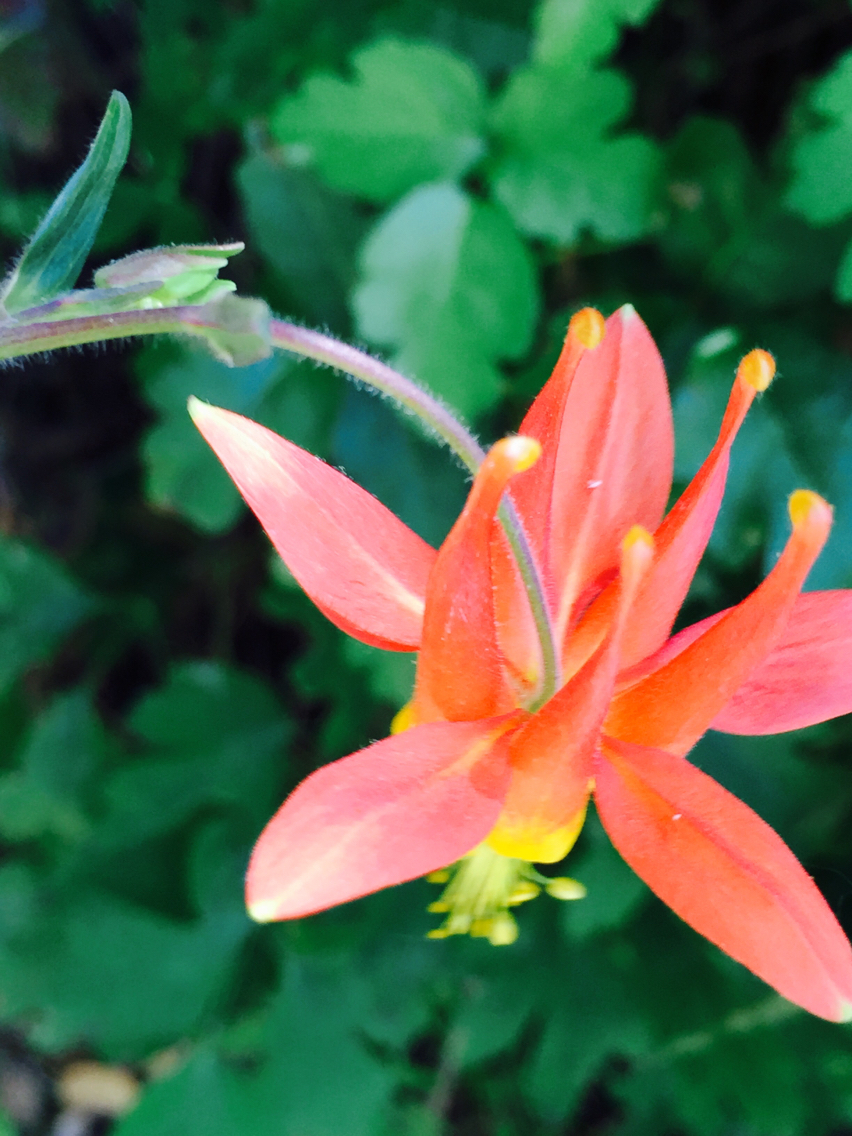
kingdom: Plantae
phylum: Tracheophyta
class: Magnoliopsida
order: Ranunculales
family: Ranunculaceae
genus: Aquilegia
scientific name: Aquilegia formosa
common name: Sitka columbine
